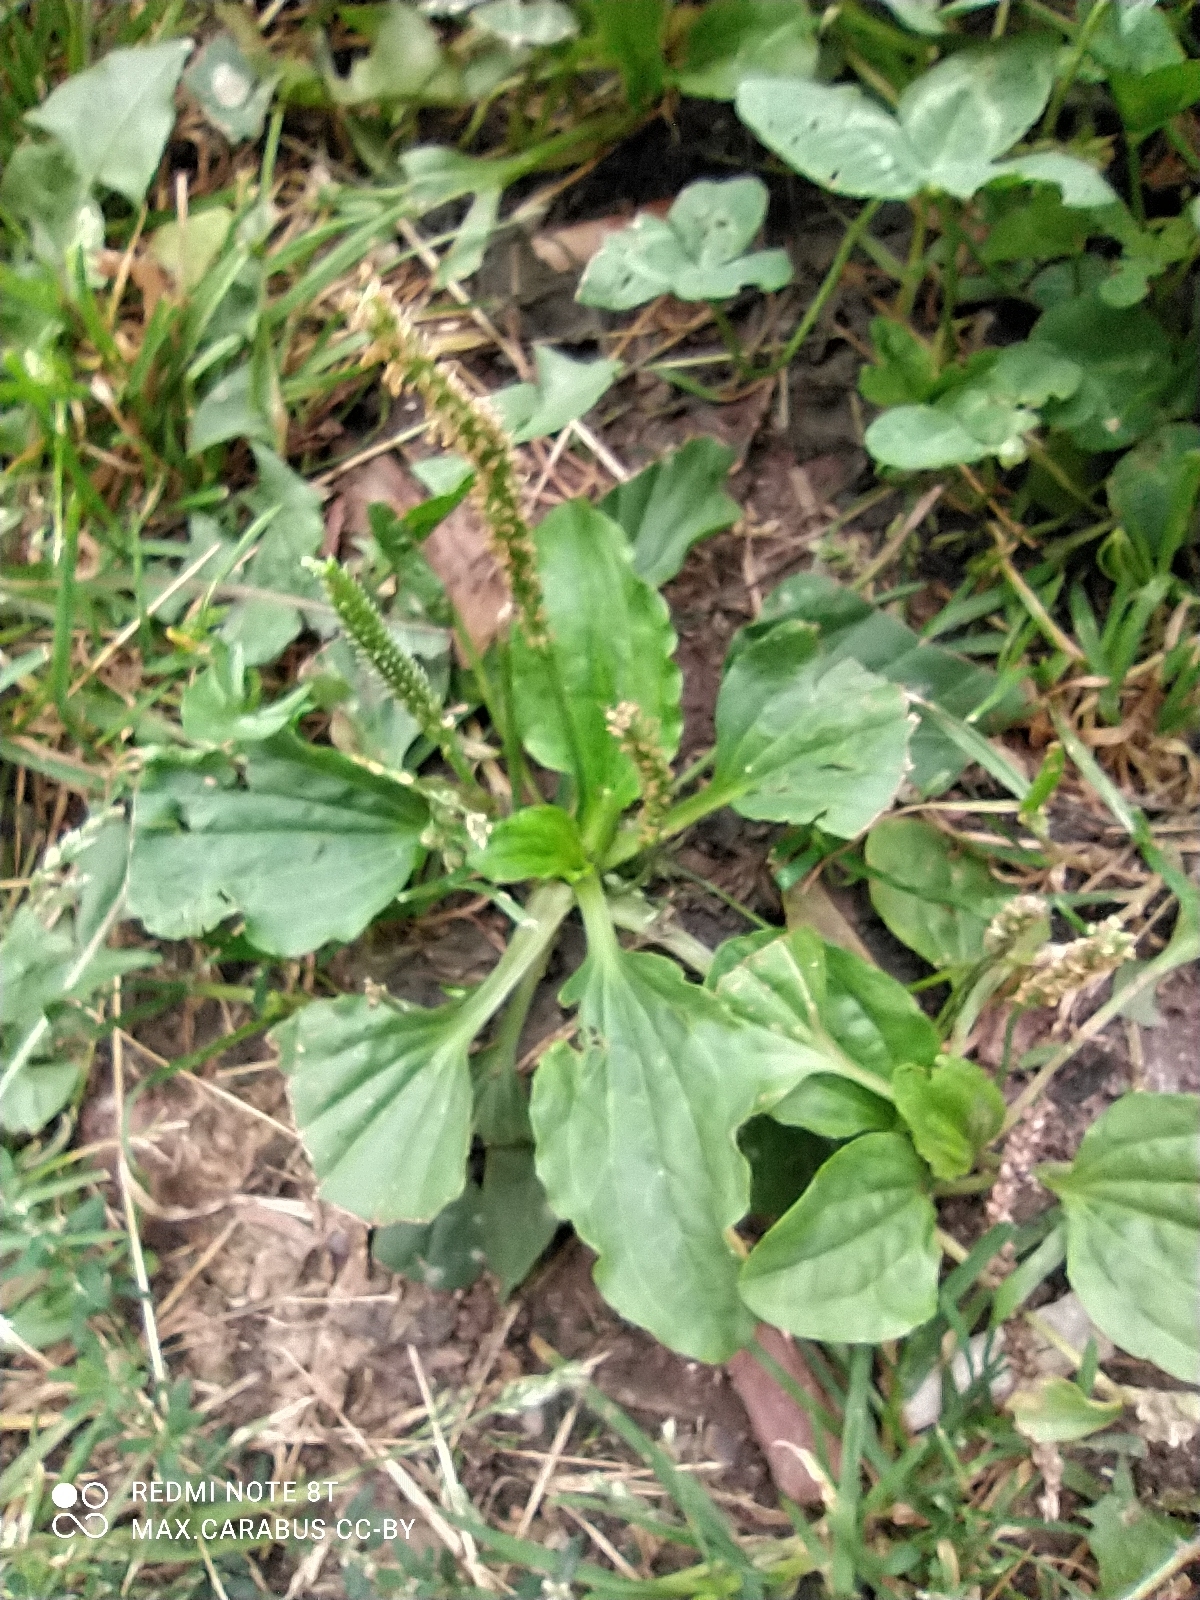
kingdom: Plantae
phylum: Tracheophyta
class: Magnoliopsida
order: Lamiales
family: Plantaginaceae
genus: Plantago
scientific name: Plantago major
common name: Common plantain
